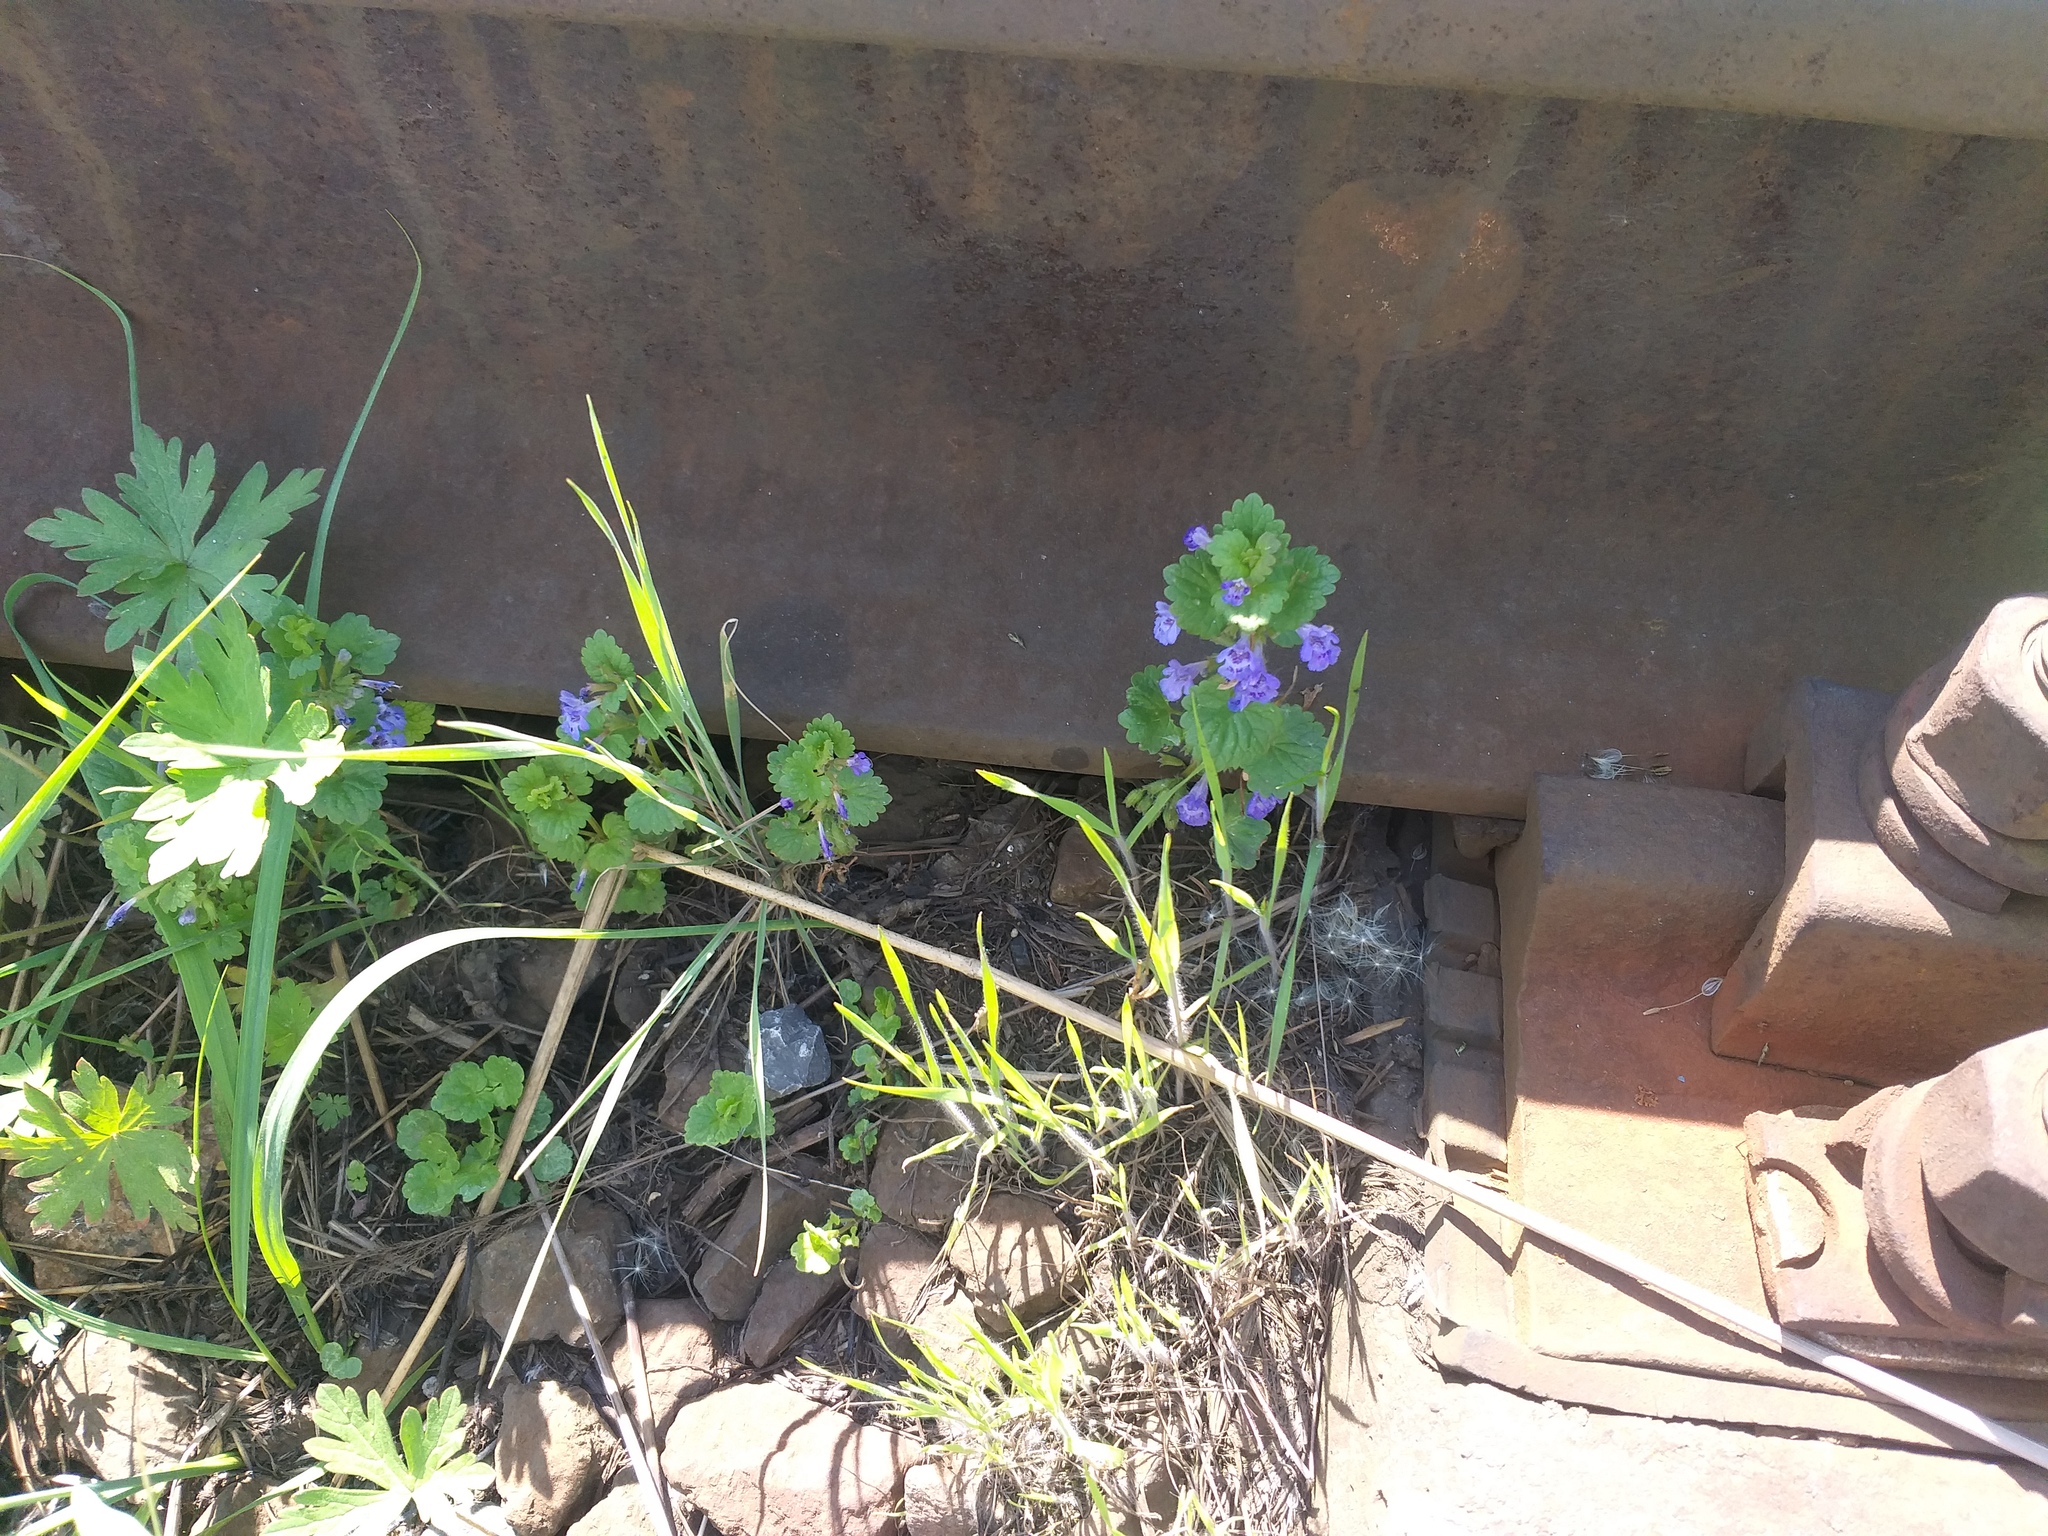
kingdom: Plantae
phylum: Tracheophyta
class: Magnoliopsida
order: Lamiales
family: Lamiaceae
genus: Glechoma
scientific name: Glechoma hederacea
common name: Ground ivy
